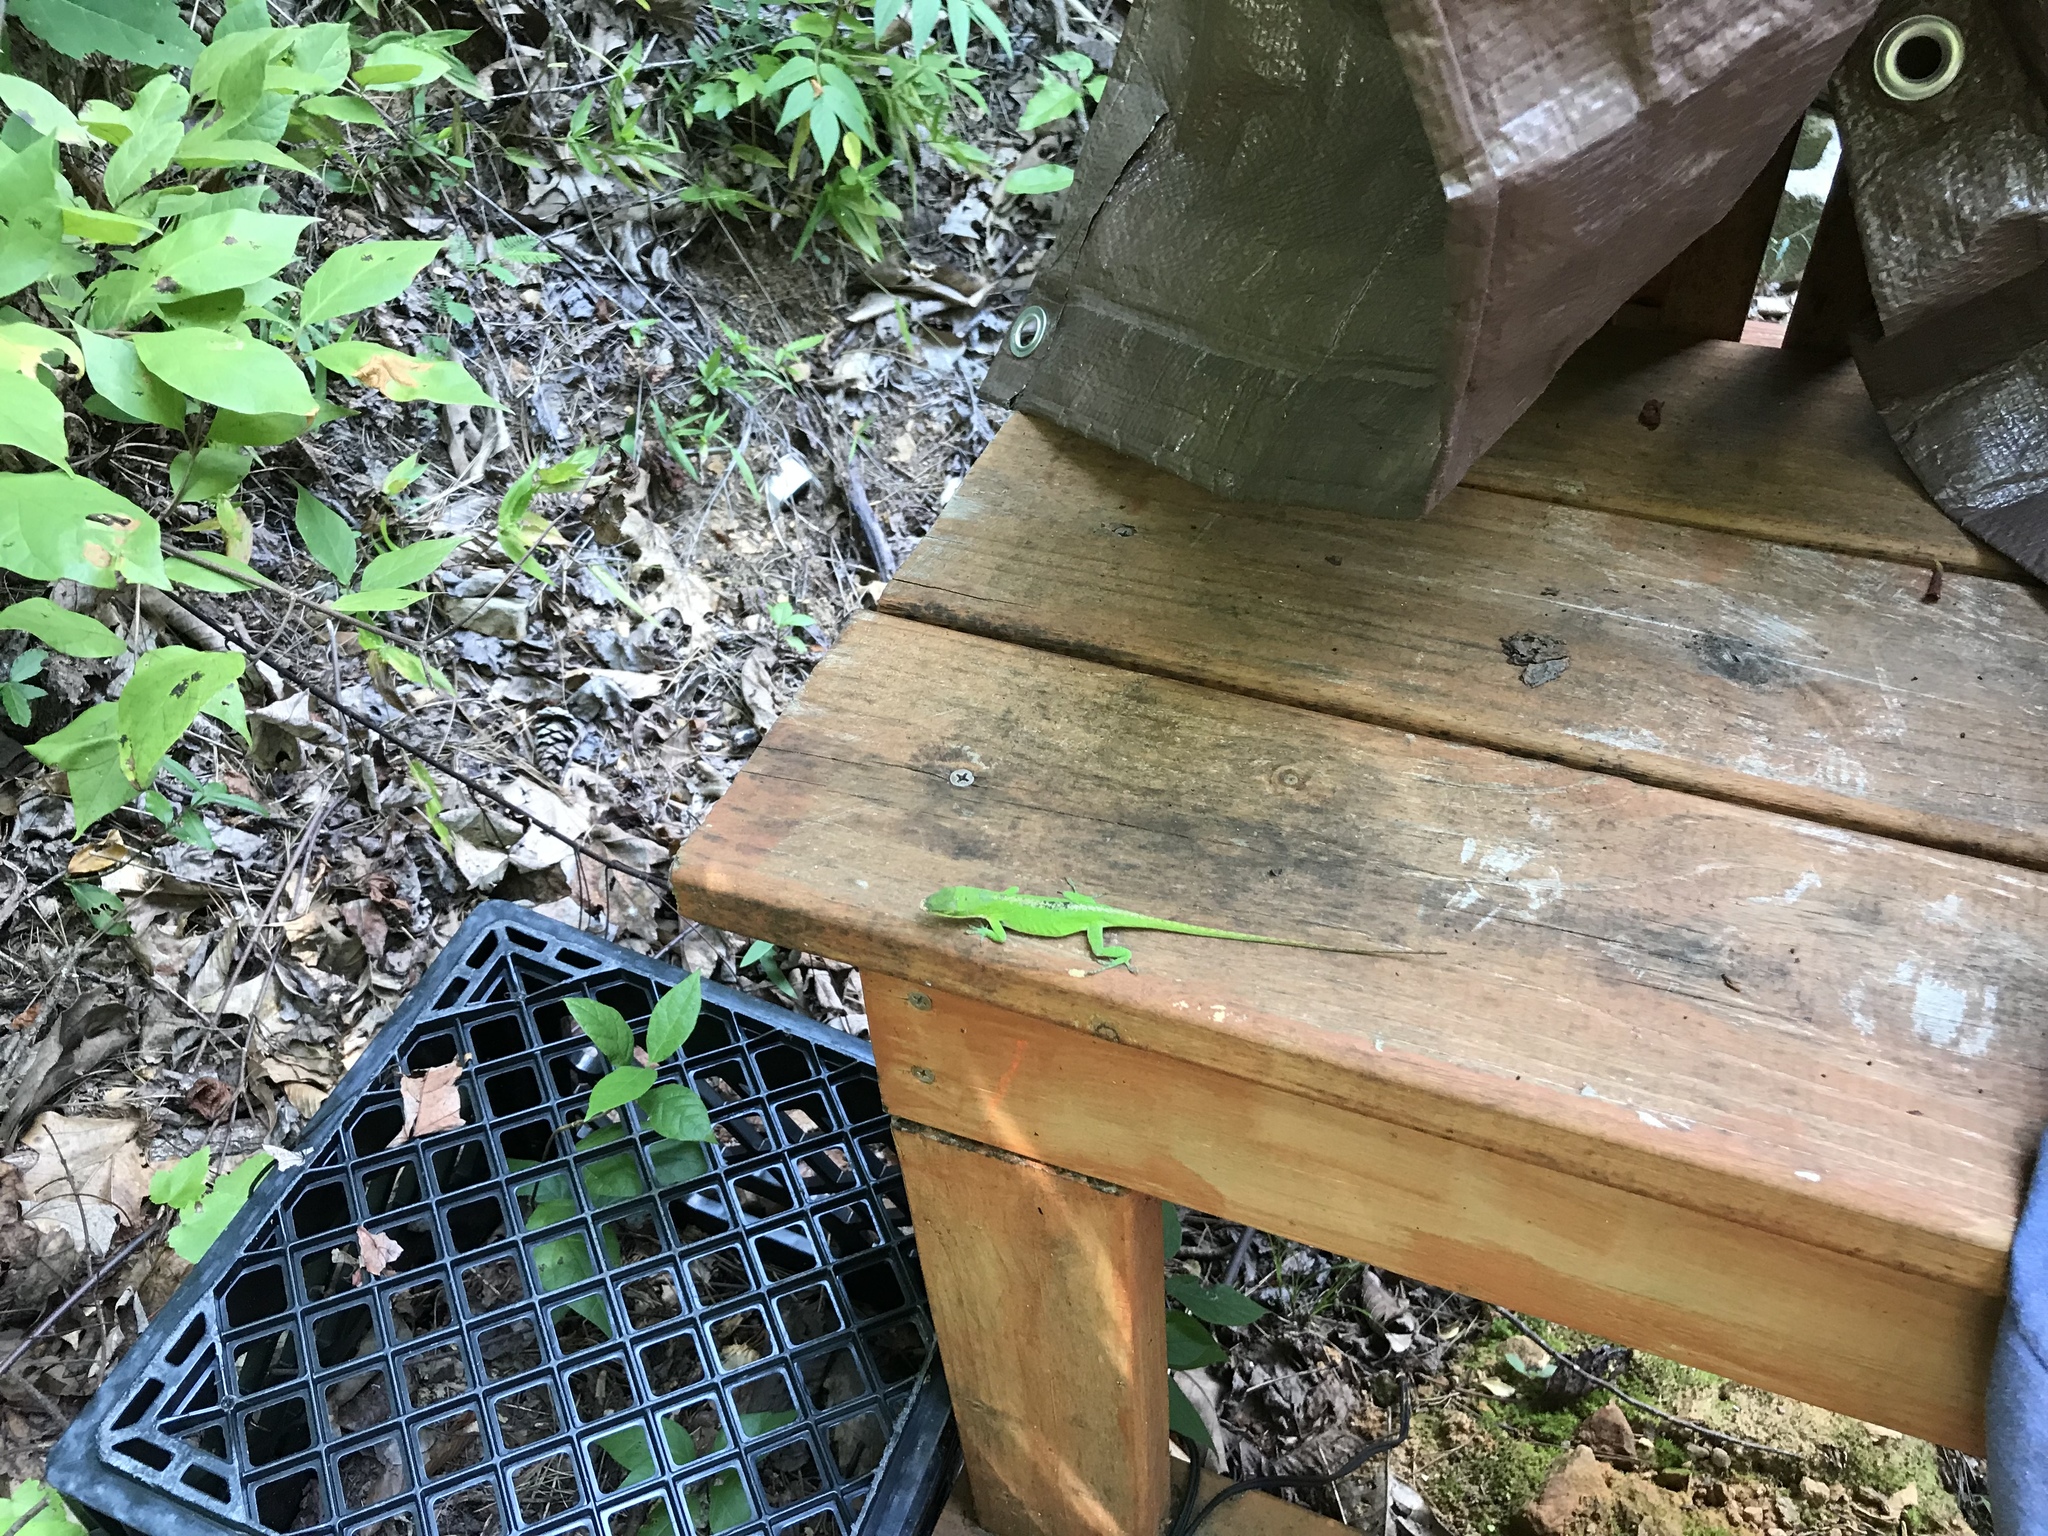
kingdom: Animalia
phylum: Chordata
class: Squamata
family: Dactyloidae
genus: Anolis
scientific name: Anolis carolinensis
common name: Green anole
